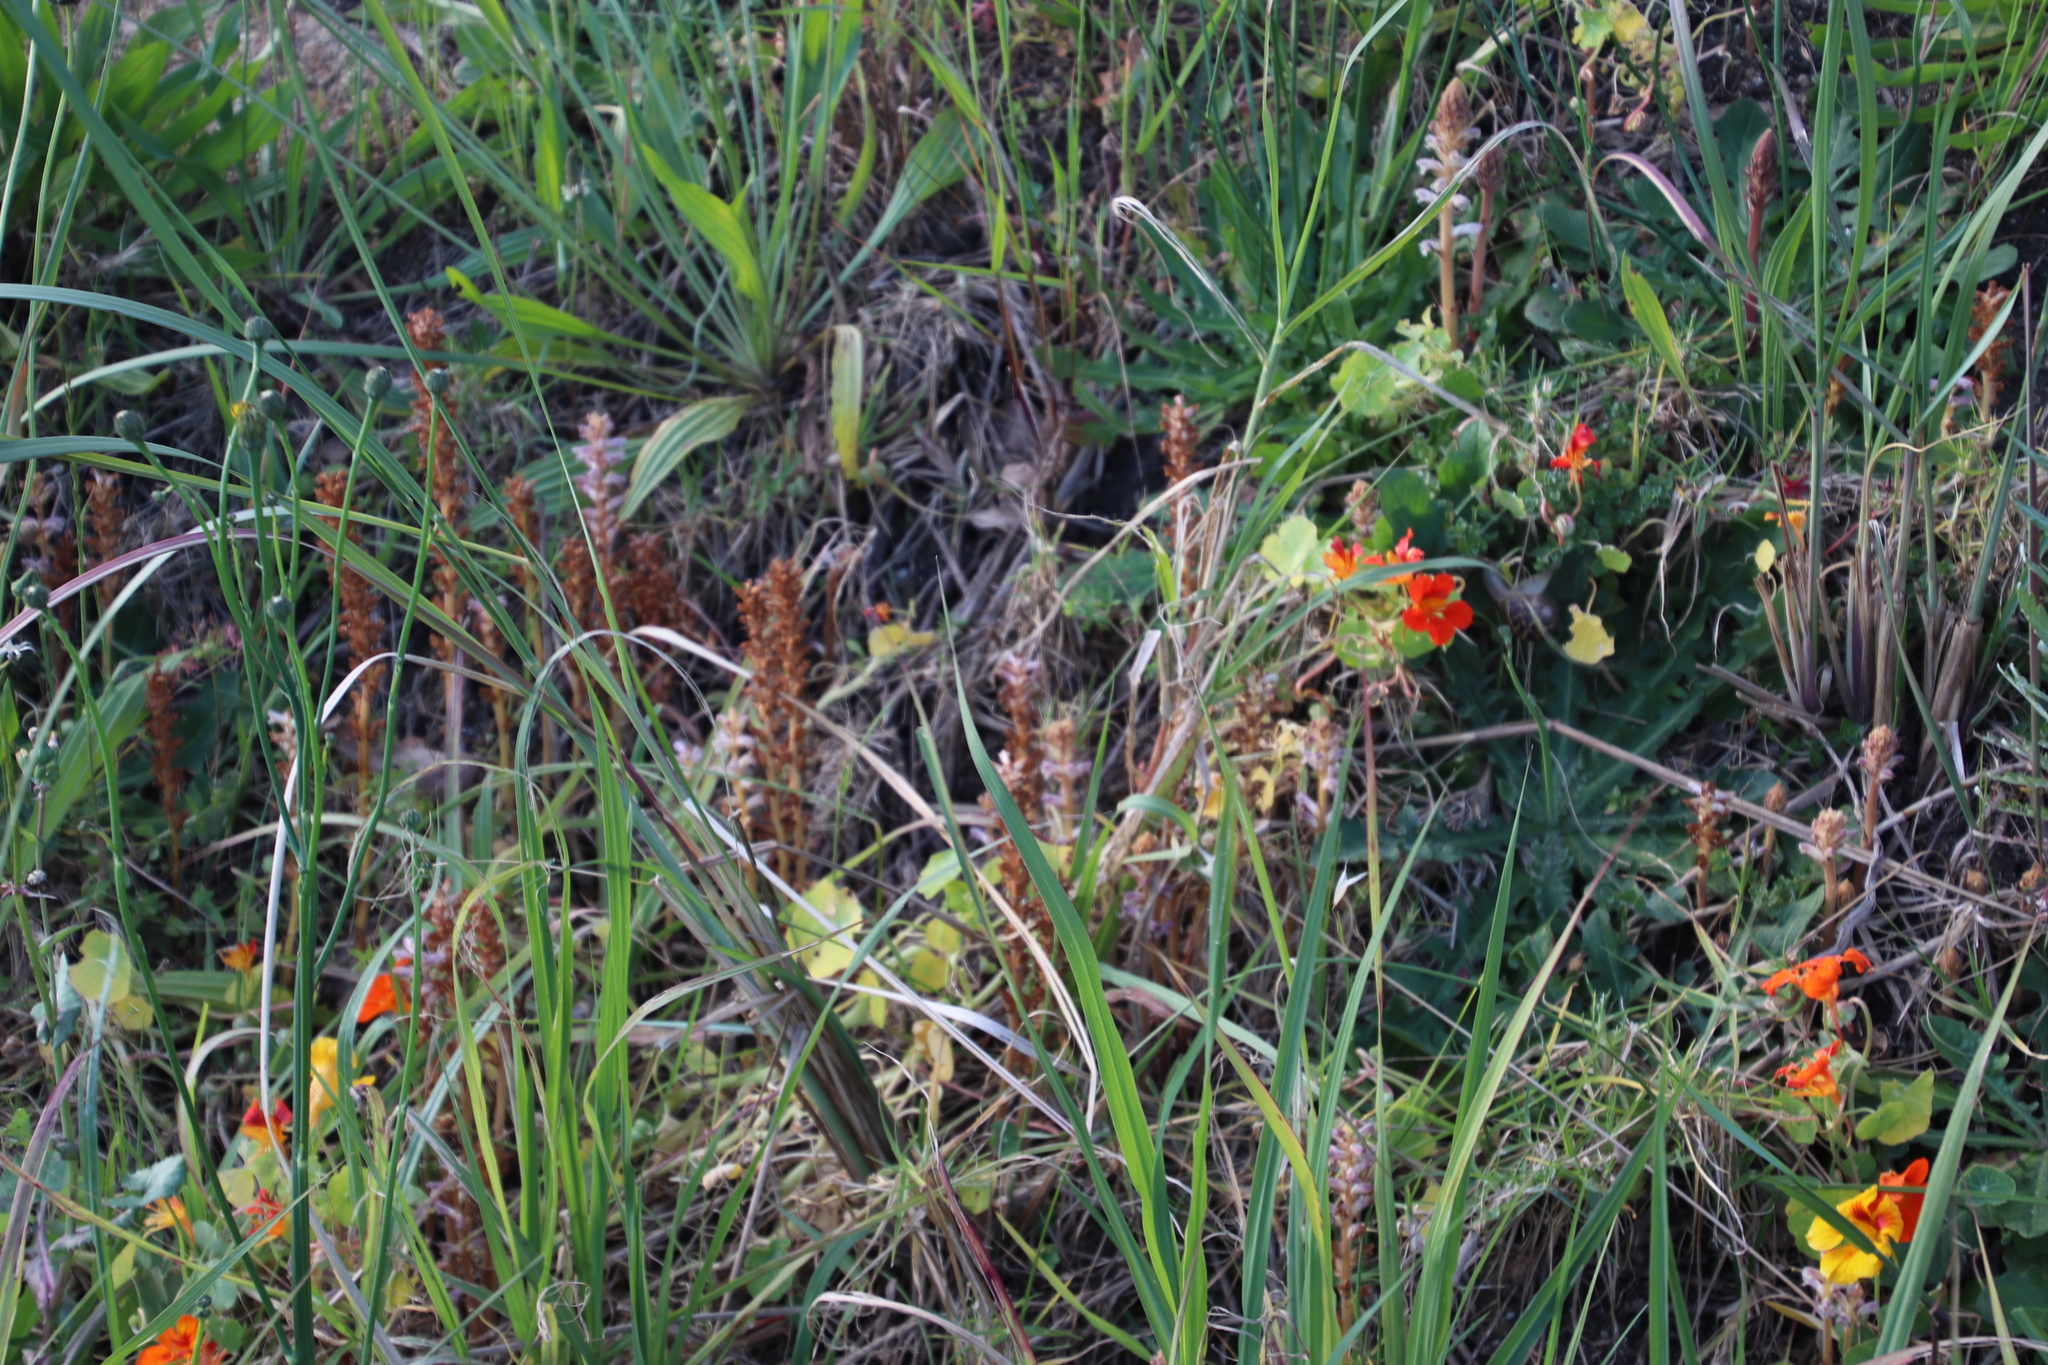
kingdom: Plantae
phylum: Tracheophyta
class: Magnoliopsida
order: Lamiales
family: Orobanchaceae
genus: Orobanche
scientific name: Orobanche minor
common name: Common broomrape
